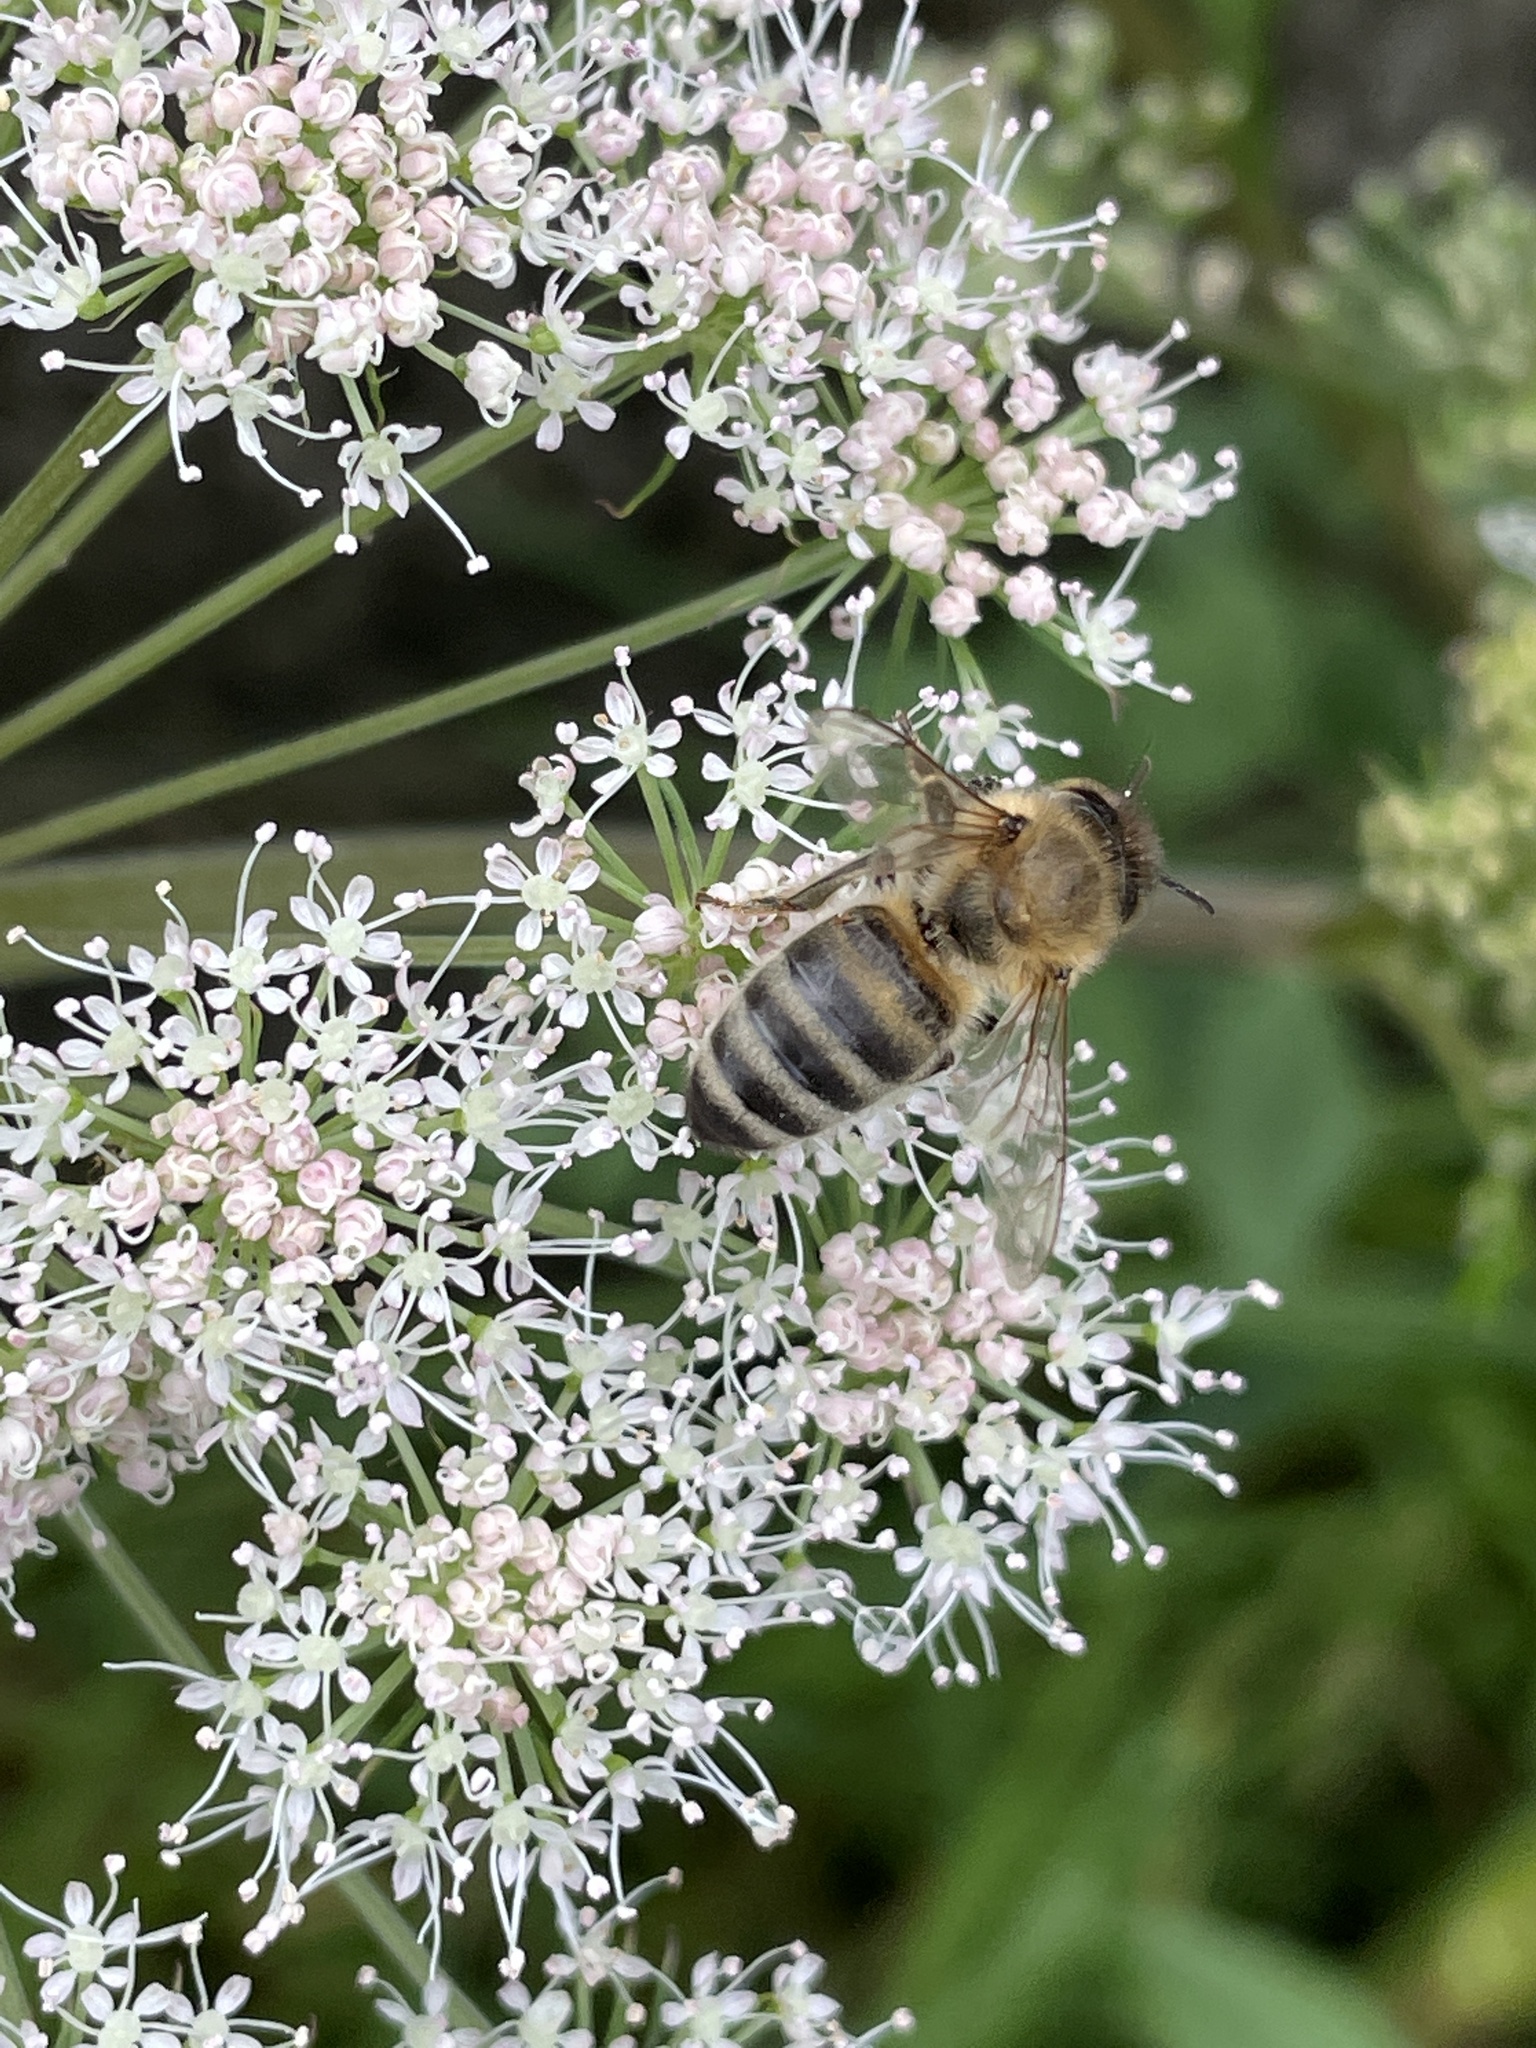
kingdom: Animalia
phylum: Arthropoda
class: Insecta
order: Hymenoptera
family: Apidae
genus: Apis
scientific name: Apis mellifera
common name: Honey bee
